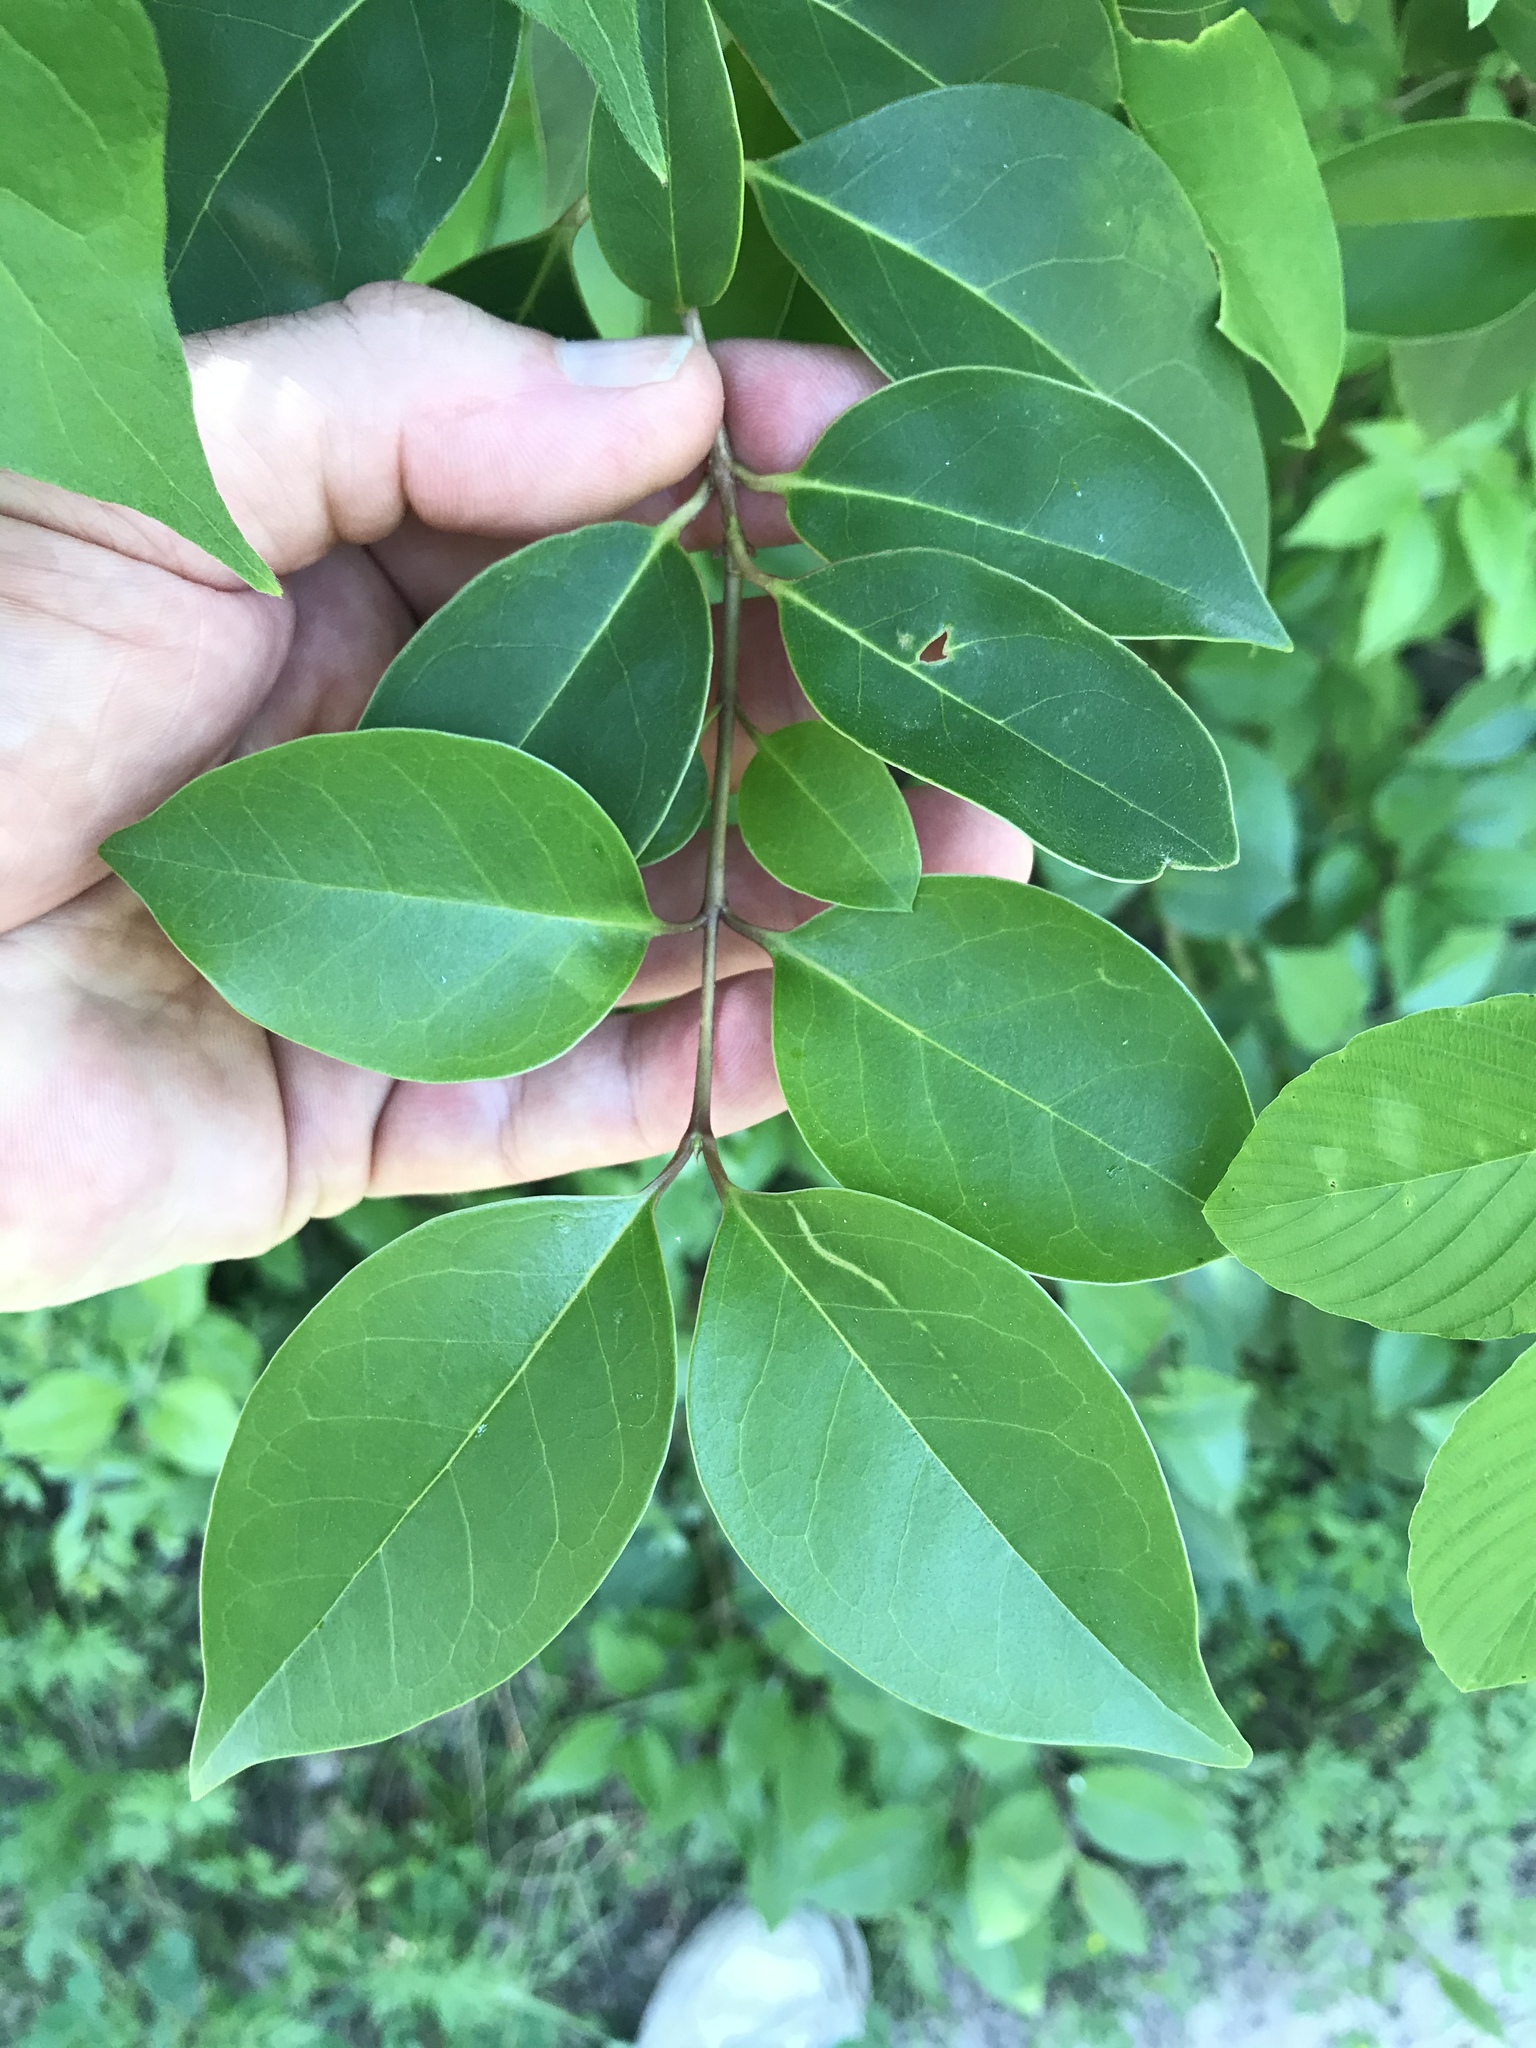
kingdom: Plantae
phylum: Tracheophyta
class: Magnoliopsida
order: Lamiales
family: Oleaceae
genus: Ligustrum
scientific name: Ligustrum lucidum
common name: Glossy privet
